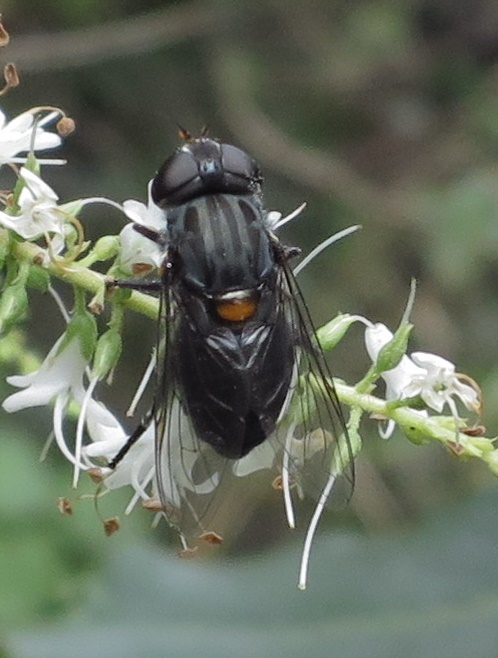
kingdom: Animalia
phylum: Arthropoda
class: Insecta
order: Diptera
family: Syrphidae
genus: Helophilus
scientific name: Helophilus hochstetteri
